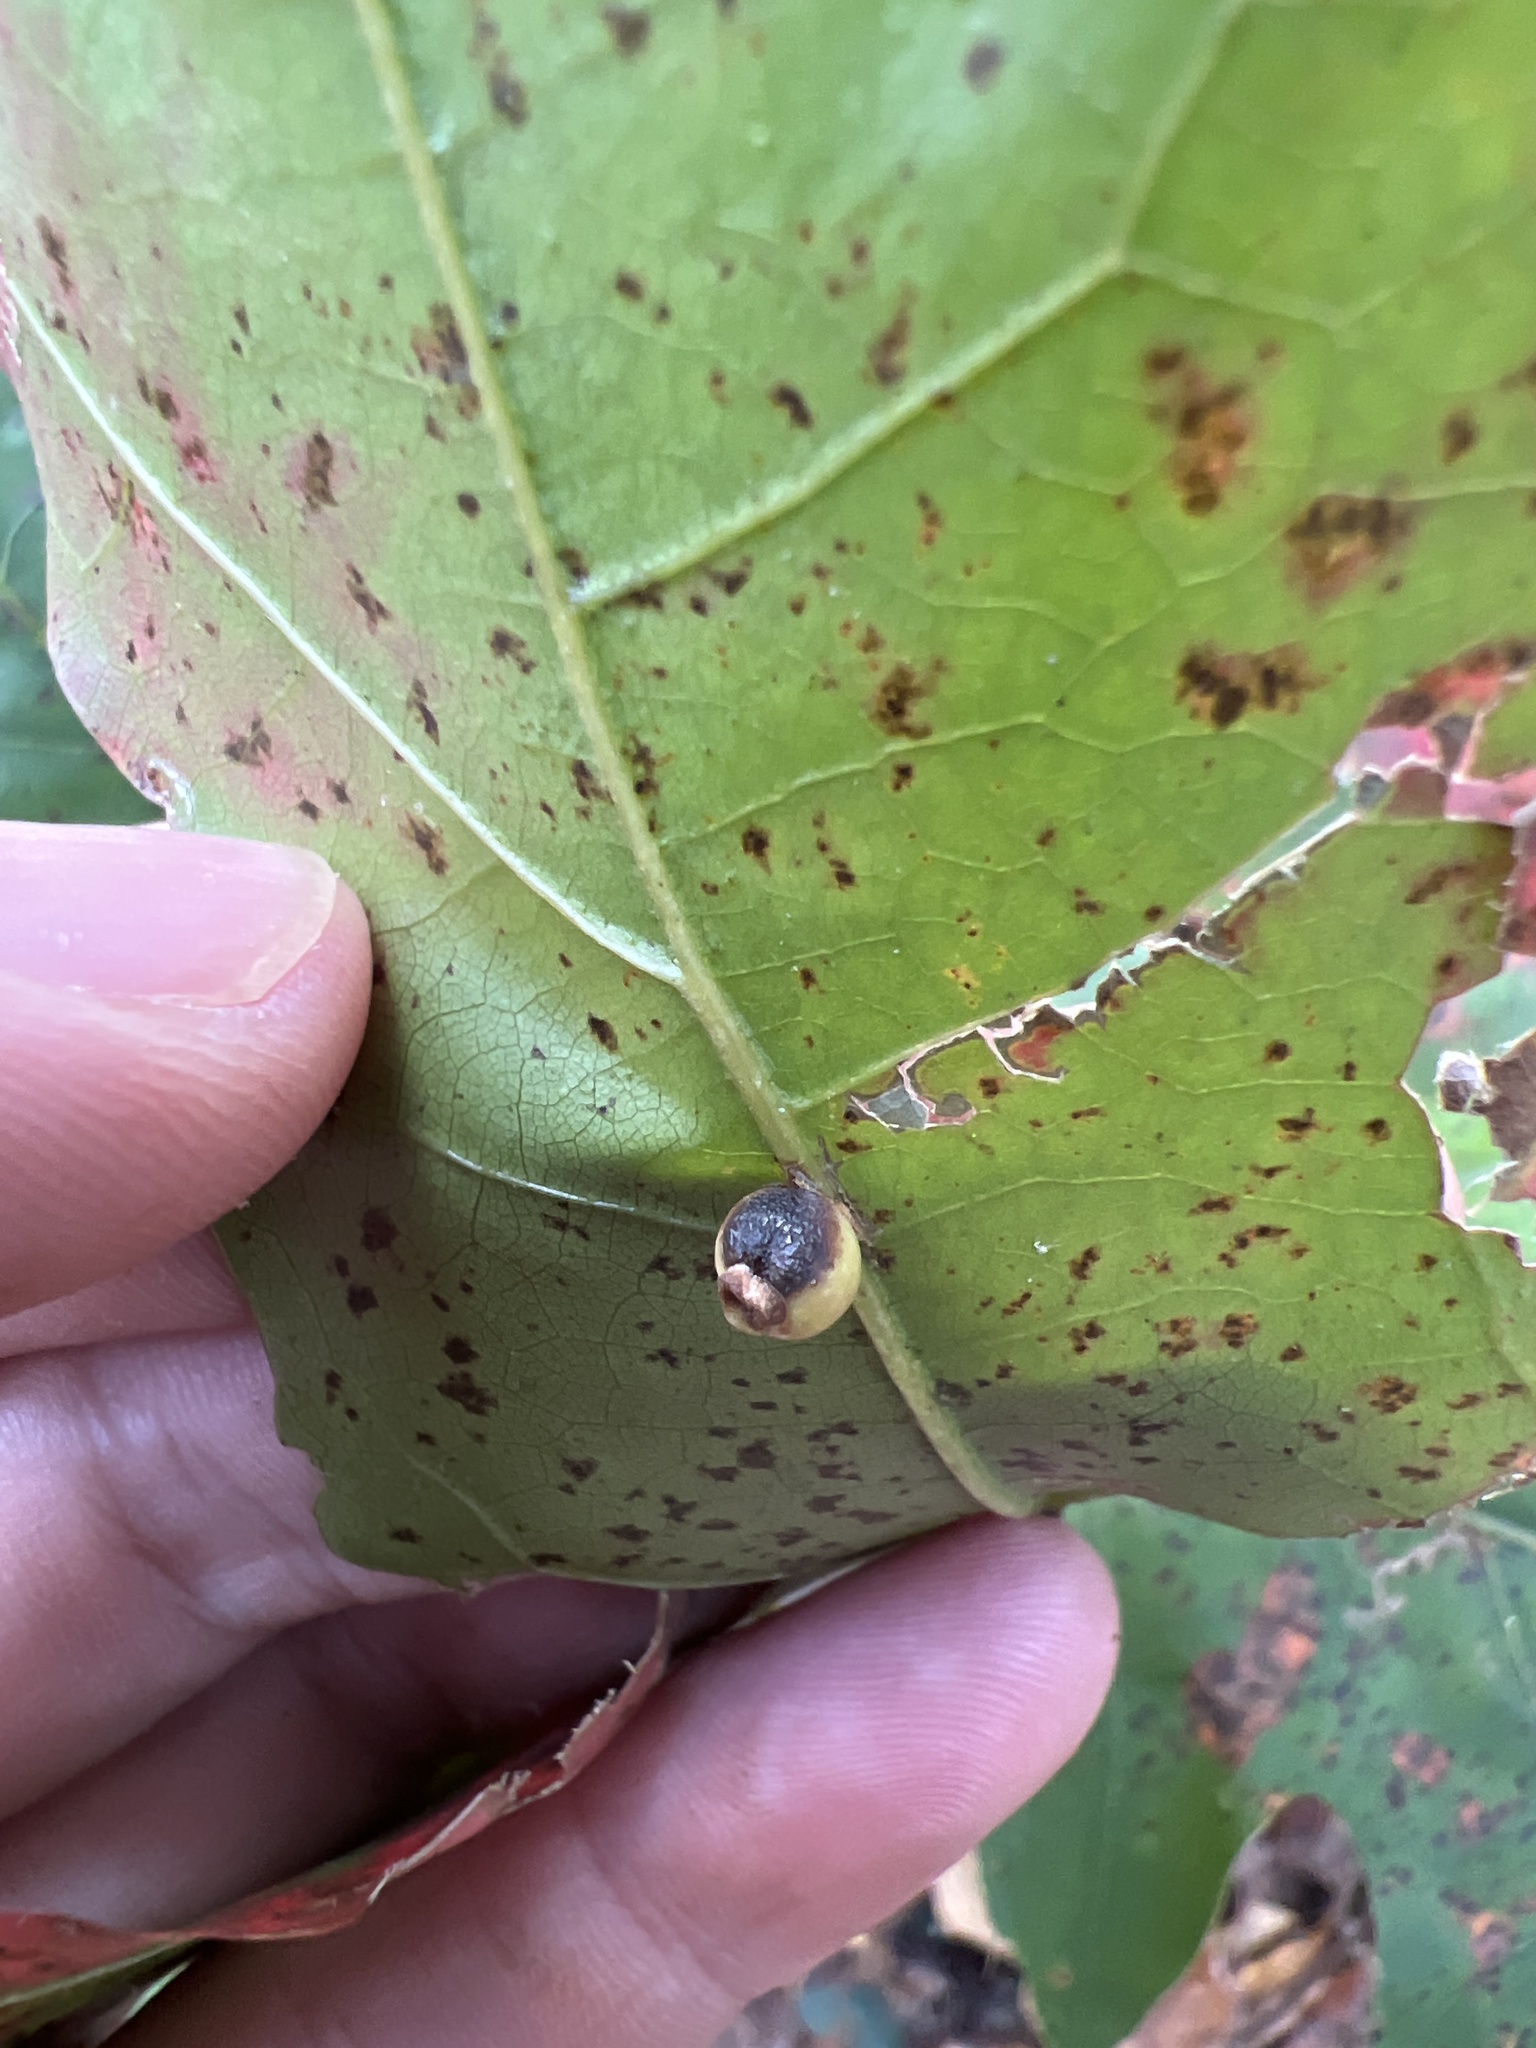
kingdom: Animalia
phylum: Arthropoda
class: Insecta
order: Hymenoptera
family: Cynipidae
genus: Kokkocynips
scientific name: Kokkocynips rileyi
